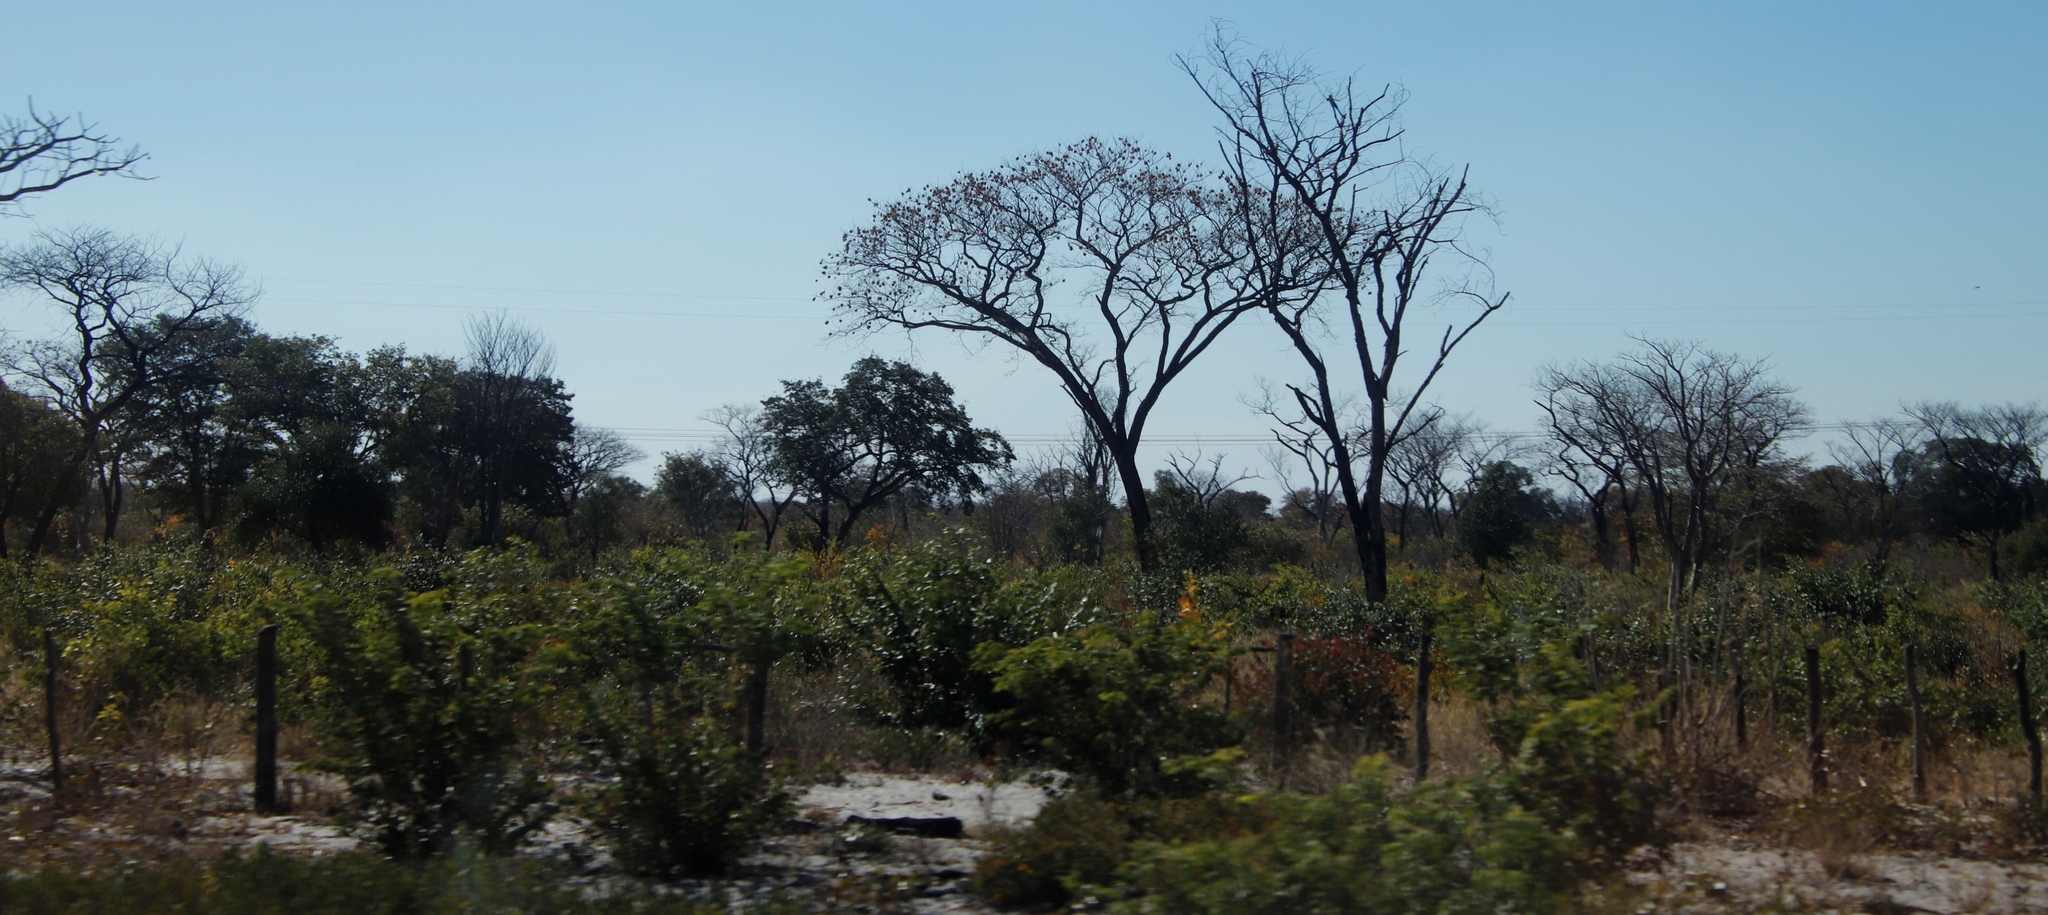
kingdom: Plantae
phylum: Tracheophyta
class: Magnoliopsida
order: Fabales
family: Fabaceae
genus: Pterocarpus
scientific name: Pterocarpus angolensis
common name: Bloodwood tree
